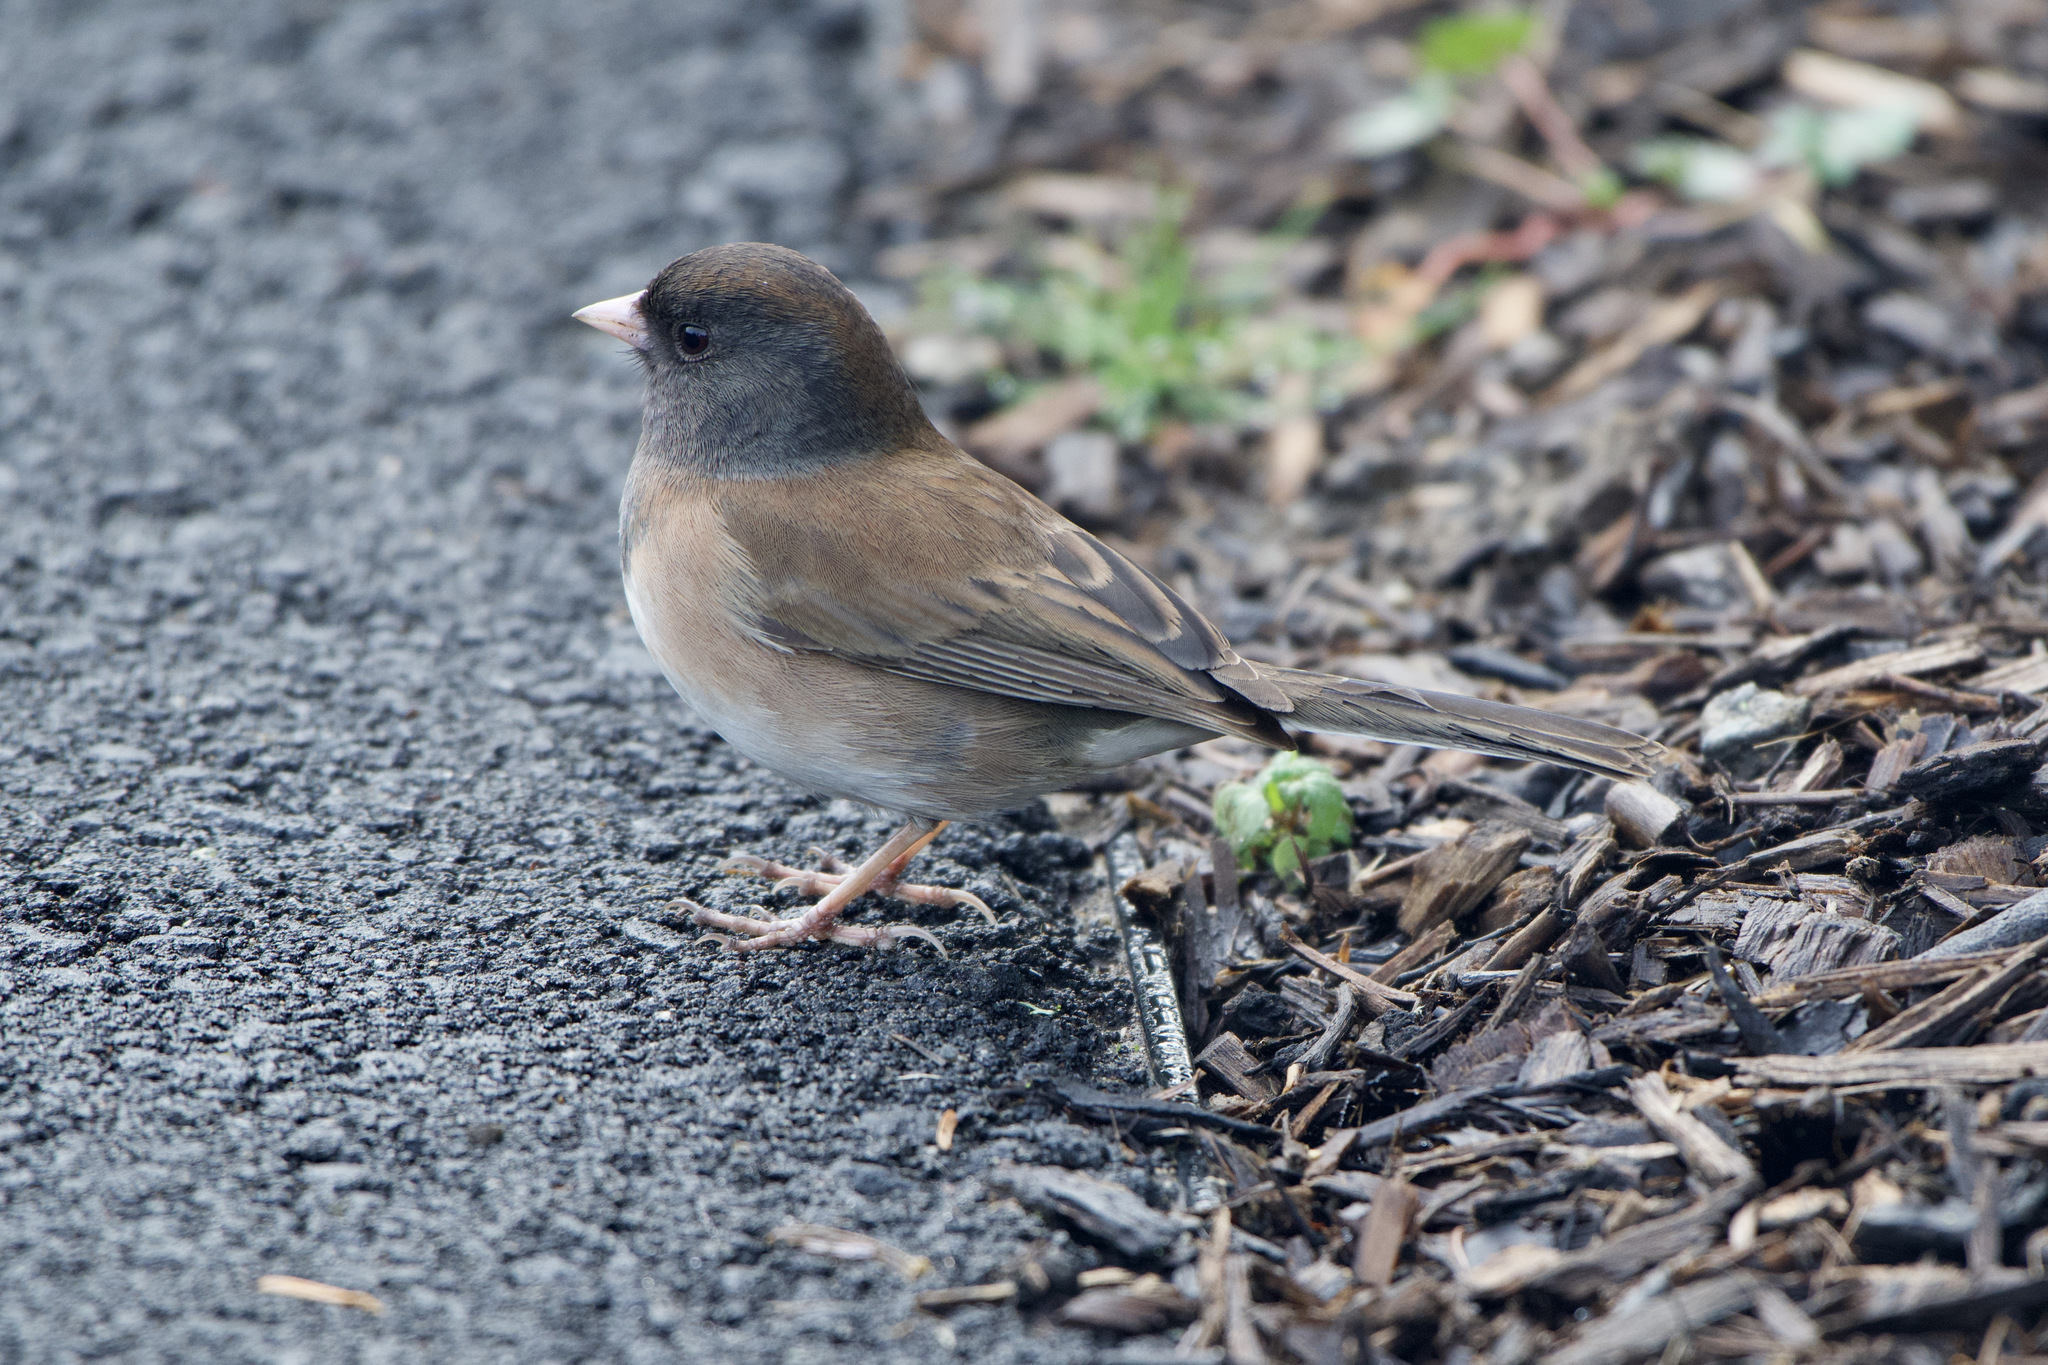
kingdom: Animalia
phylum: Chordata
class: Aves
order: Passeriformes
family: Passerellidae
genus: Junco
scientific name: Junco hyemalis
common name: Dark-eyed junco
